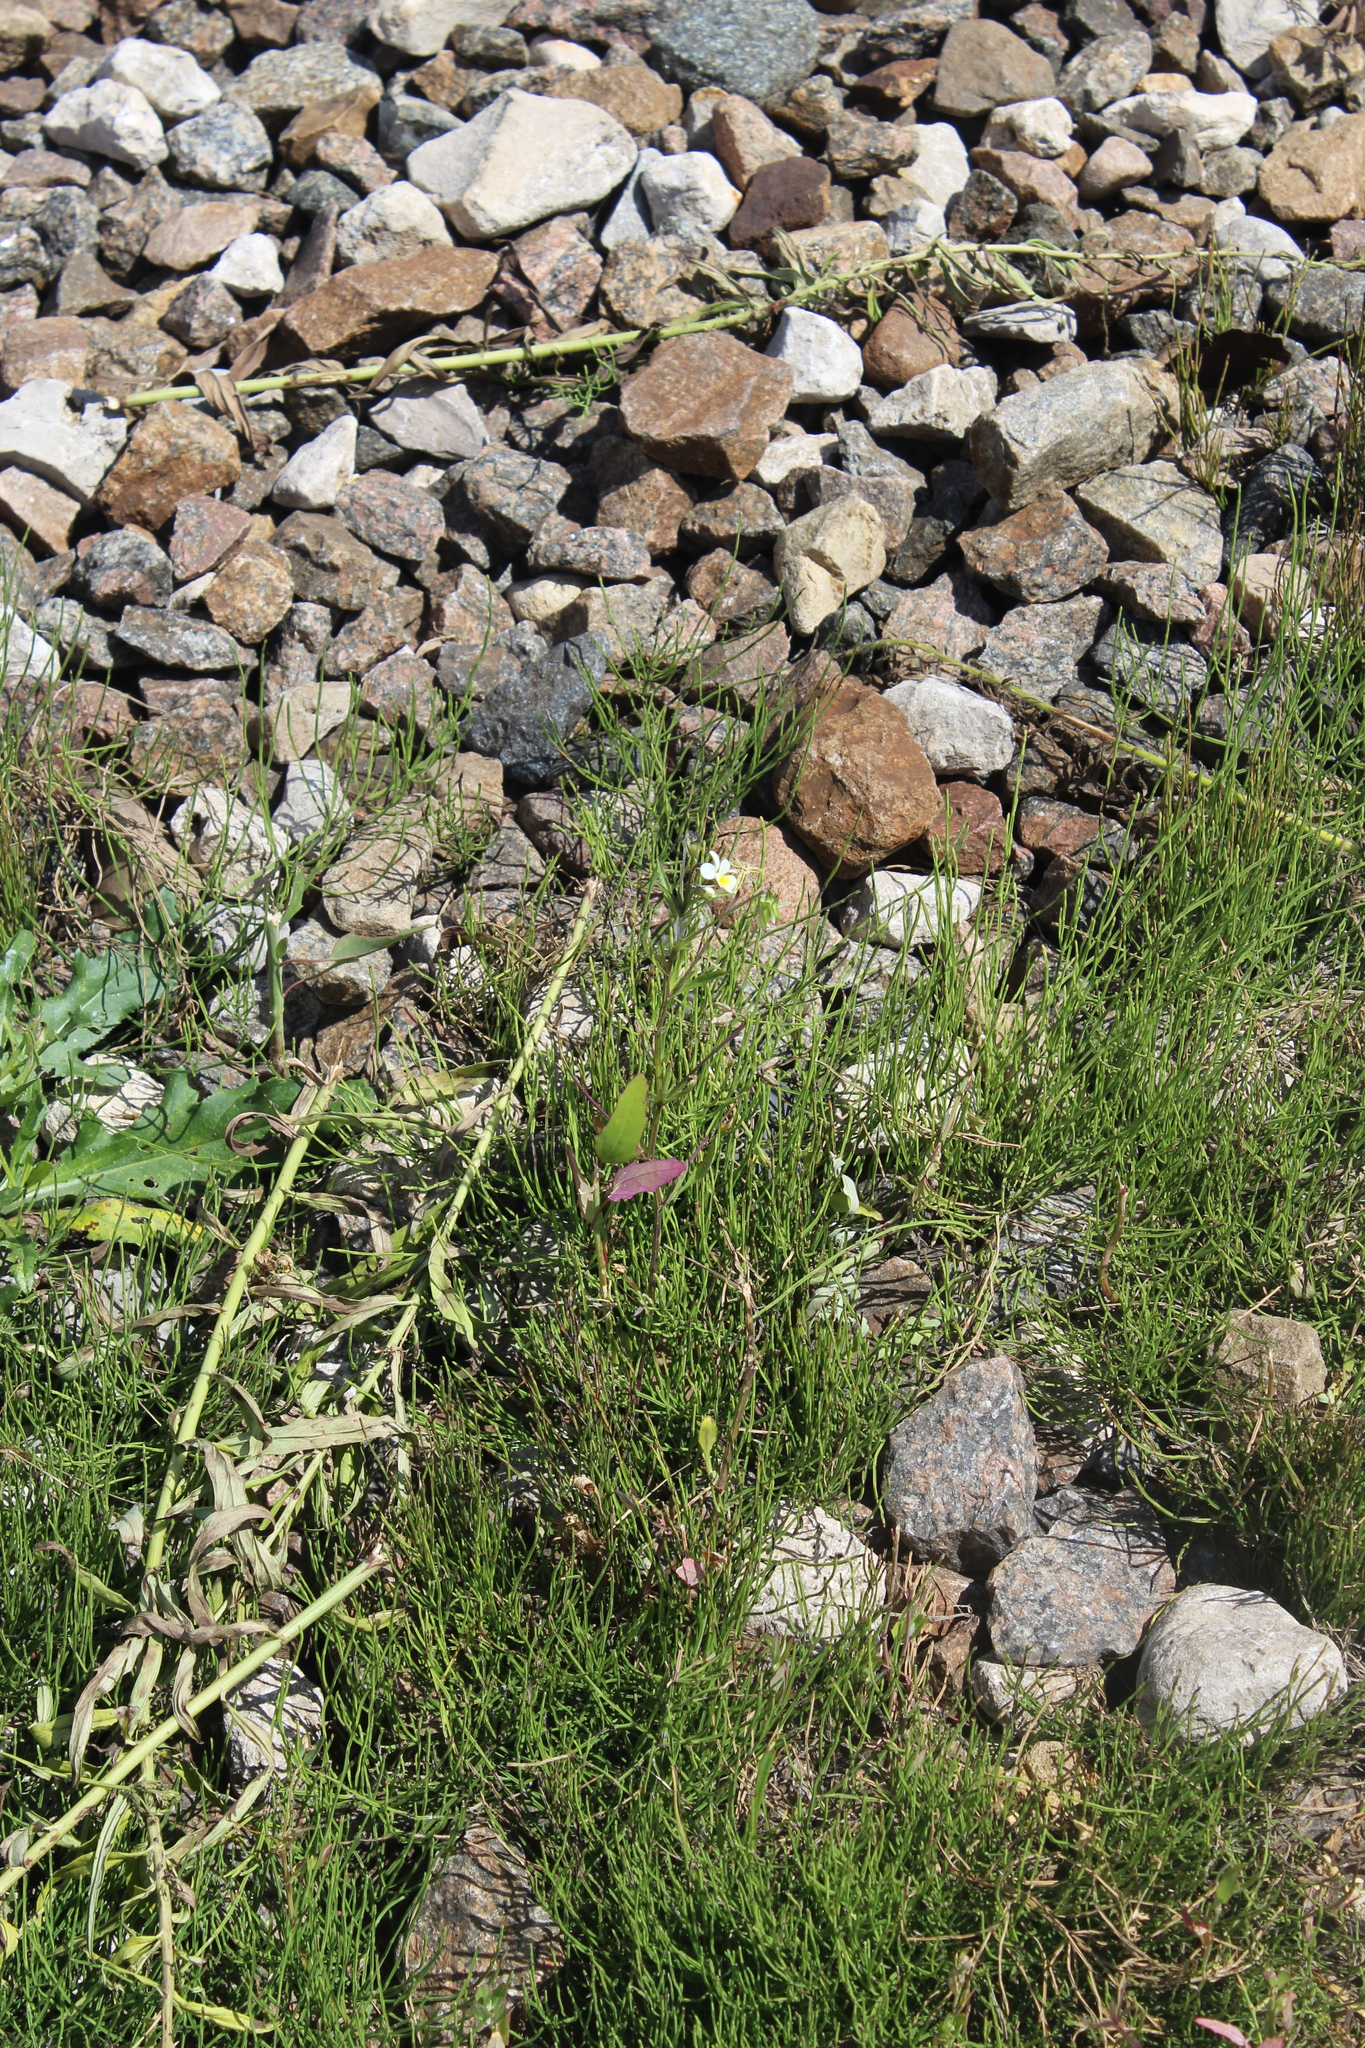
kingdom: Plantae
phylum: Tracheophyta
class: Magnoliopsida
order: Malpighiales
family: Violaceae
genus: Viola
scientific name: Viola arvensis
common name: Field pansy
